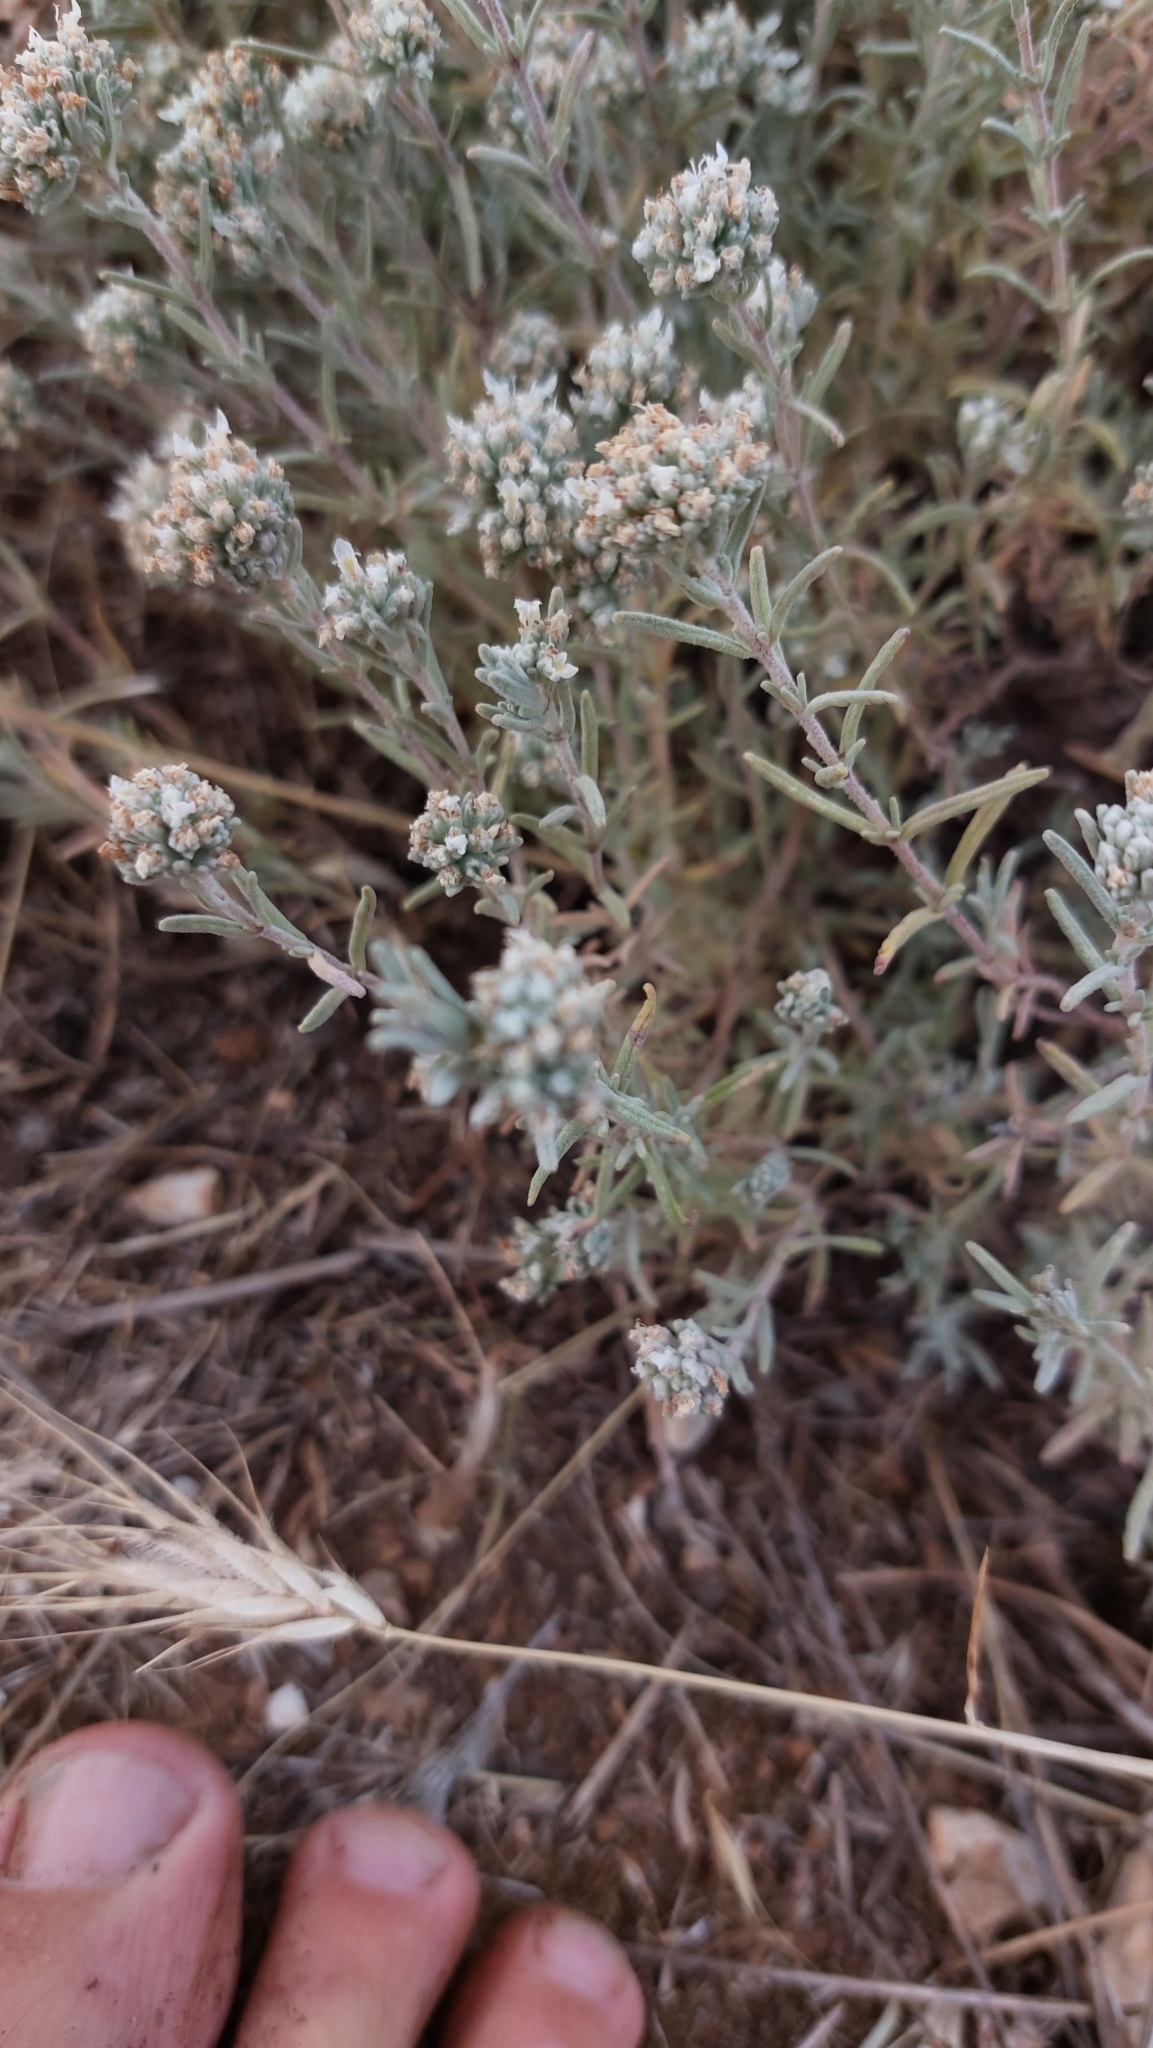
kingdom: Plantae
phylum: Tracheophyta
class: Magnoliopsida
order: Lamiales
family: Lamiaceae
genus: Teucrium
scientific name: Teucrium capitatum
